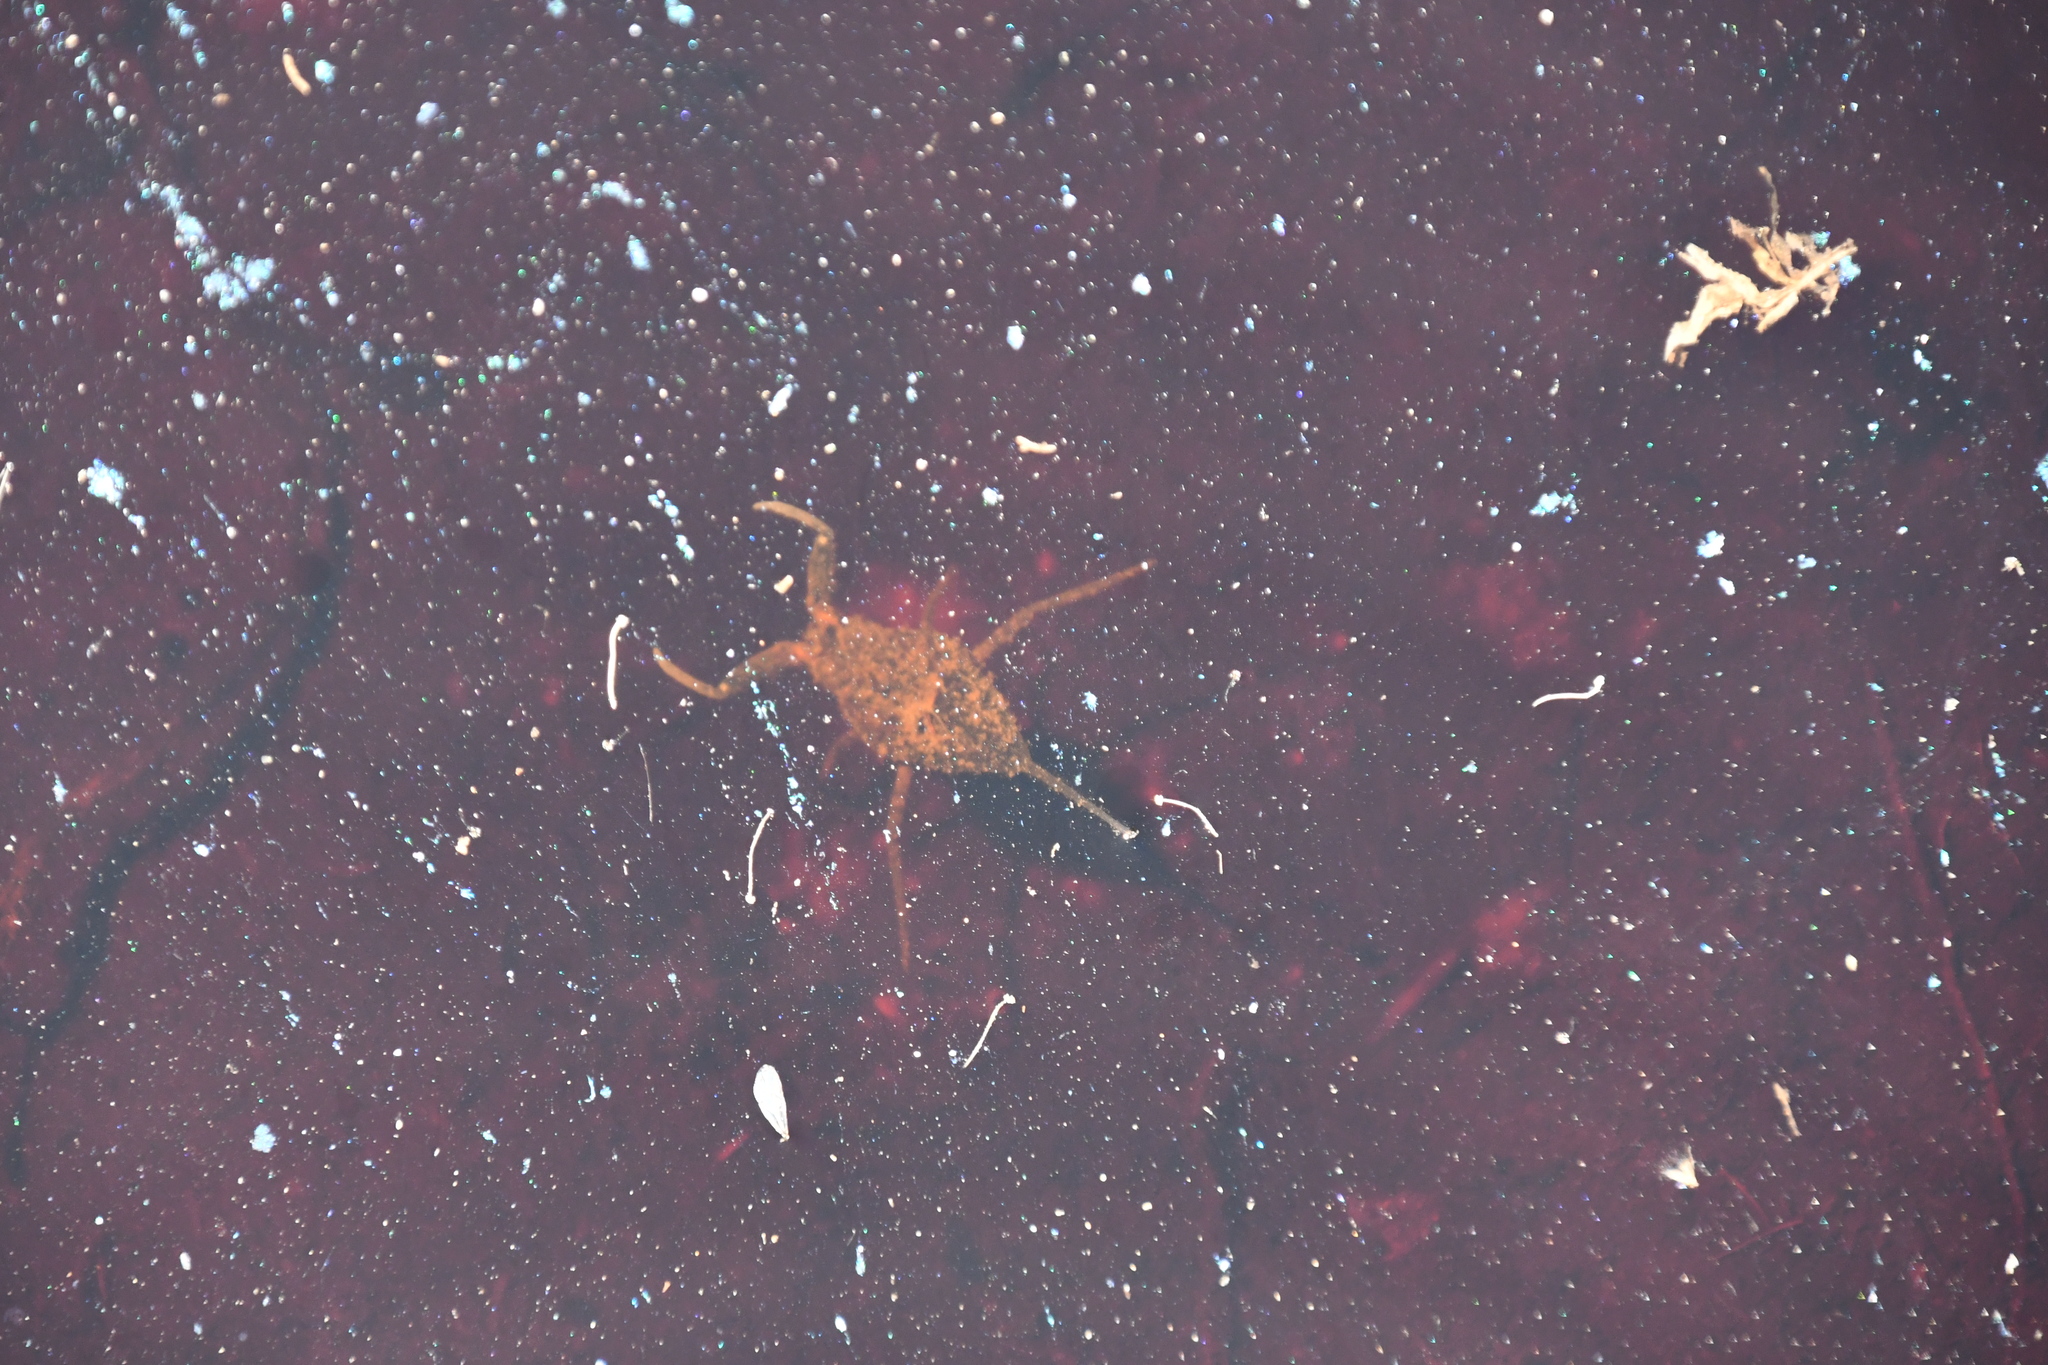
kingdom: Animalia
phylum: Arthropoda
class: Insecta
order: Hemiptera
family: Nepidae
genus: Laccotrephes
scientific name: Laccotrephes tristis
